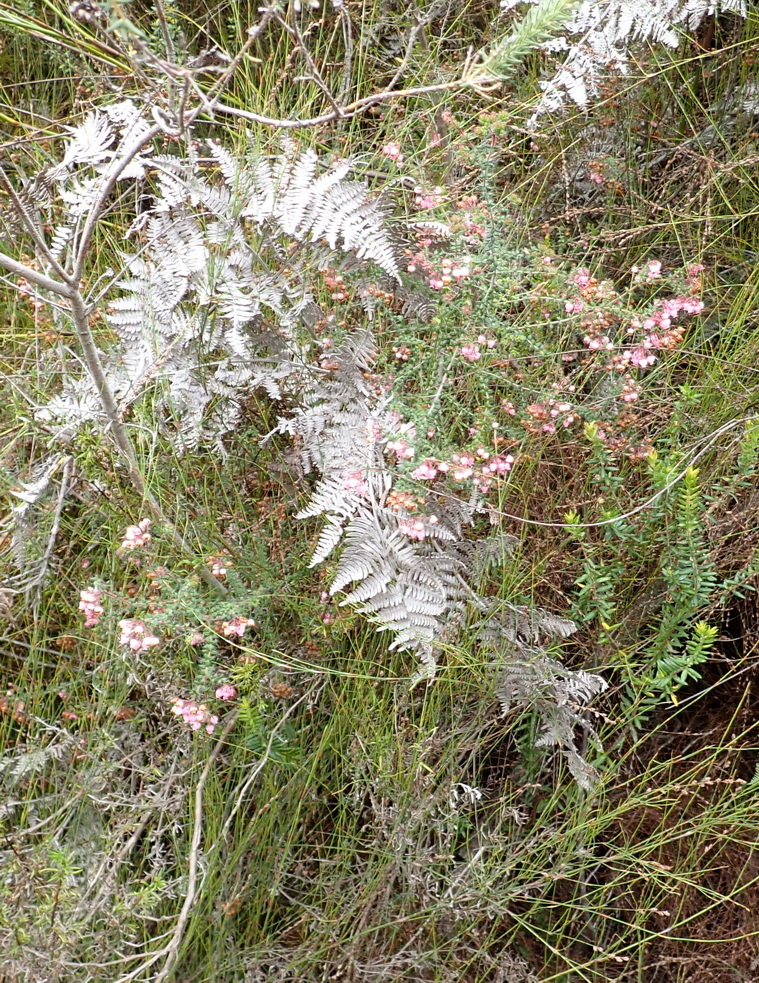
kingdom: Plantae
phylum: Tracheophyta
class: Magnoliopsida
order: Ericales
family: Ericaceae
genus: Erica
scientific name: Erica aneimena
